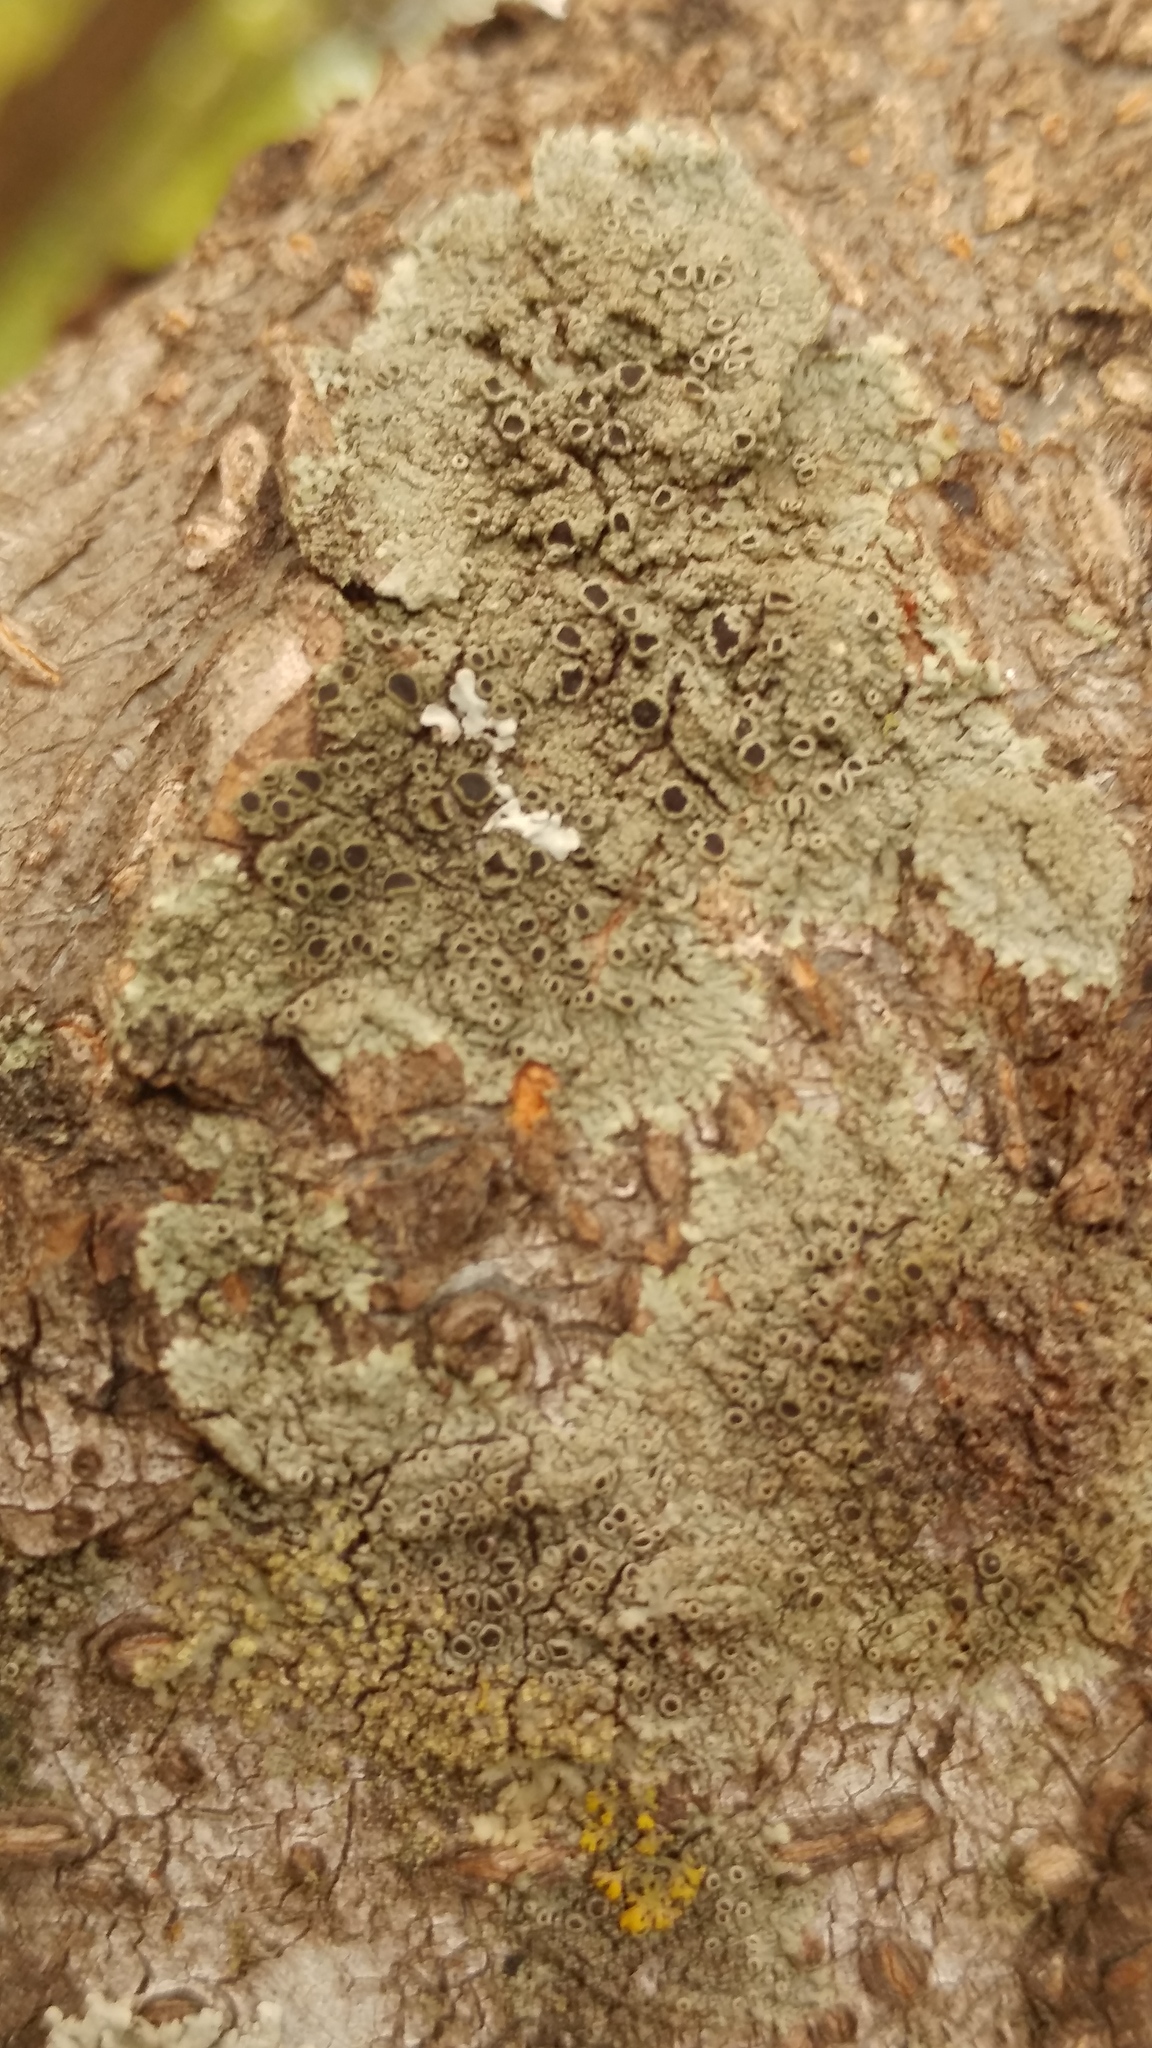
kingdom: Fungi
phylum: Ascomycota
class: Lecanoromycetes
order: Caliciales
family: Physciaceae
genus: Hyperphyscia
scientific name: Hyperphyscia syncolla
